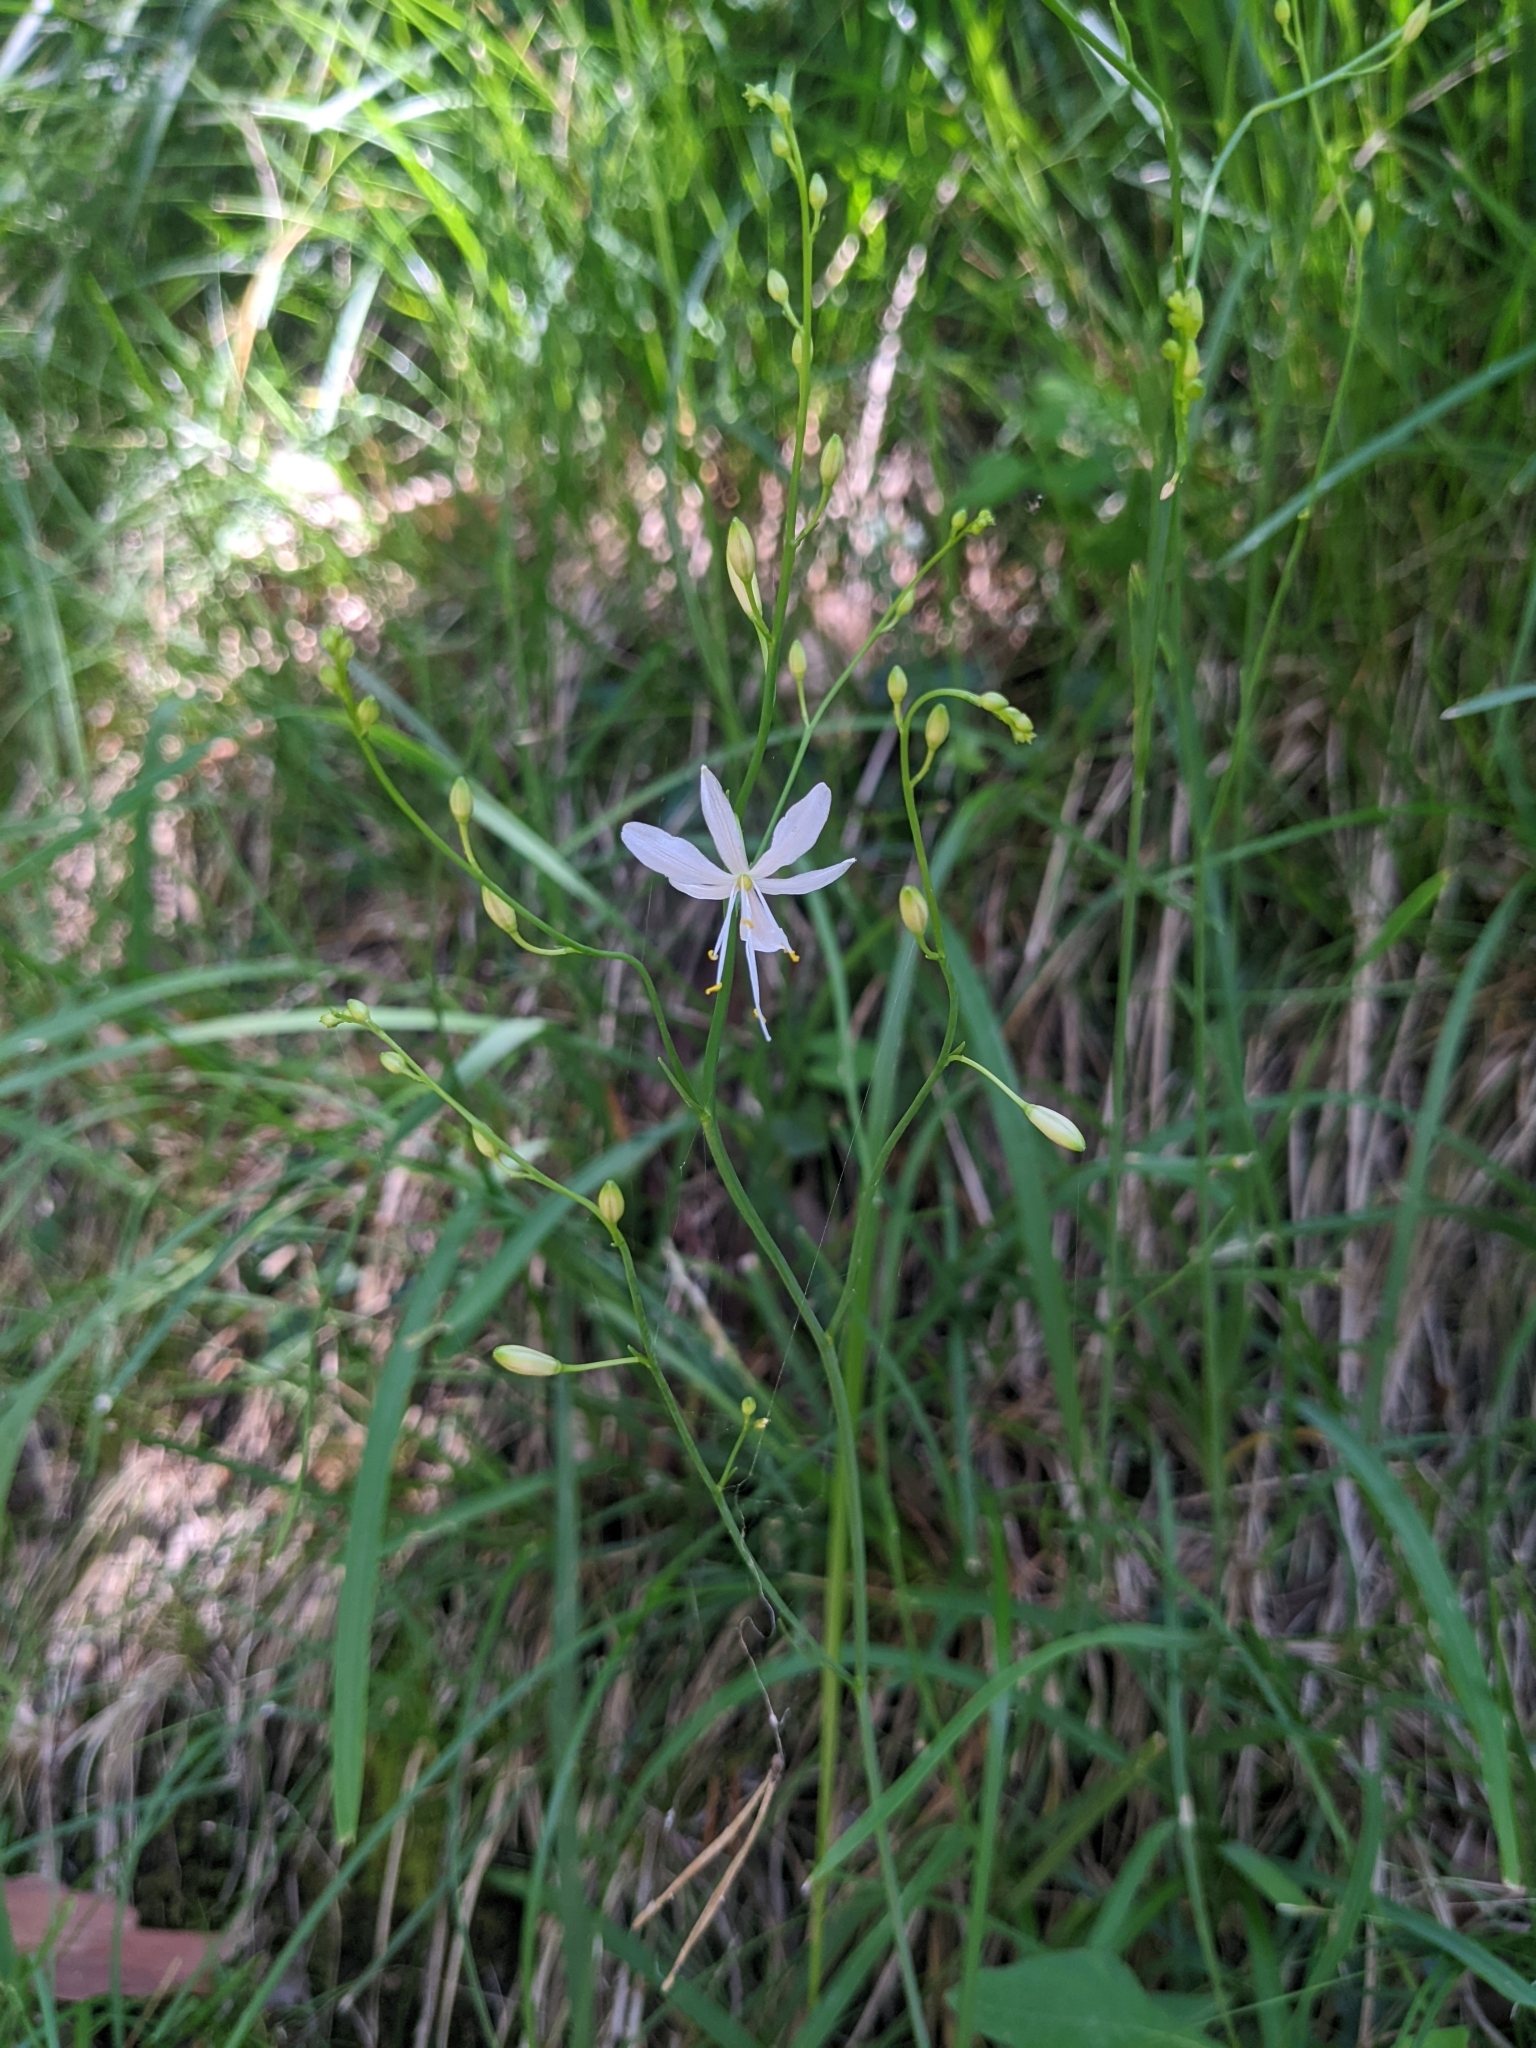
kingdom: Plantae
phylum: Tracheophyta
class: Liliopsida
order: Asparagales
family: Asparagaceae
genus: Anthericum
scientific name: Anthericum ramosum
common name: Branched st. bernard's-lily
